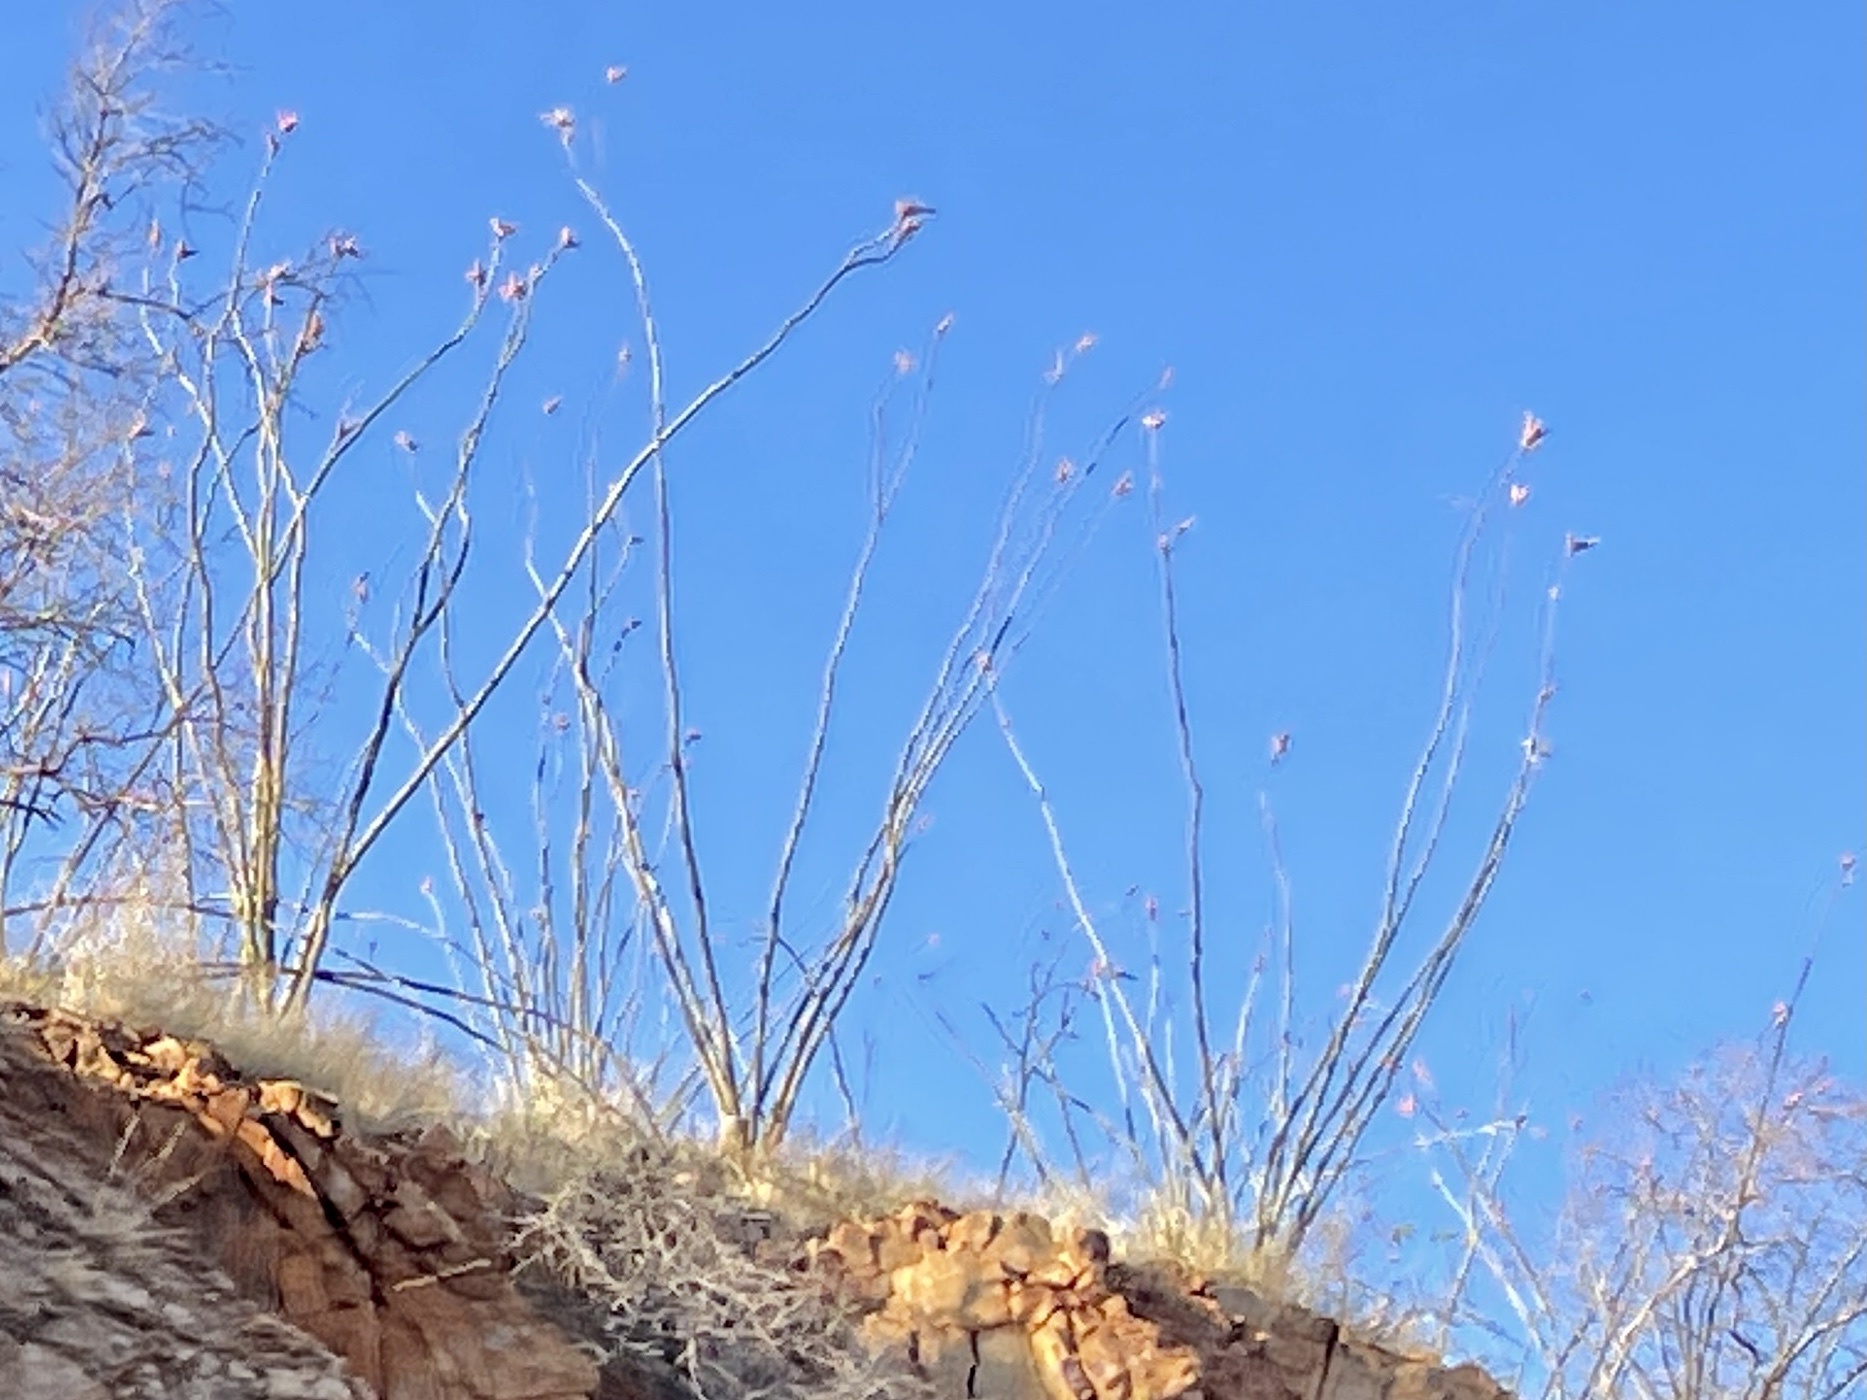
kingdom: Plantae
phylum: Tracheophyta
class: Magnoliopsida
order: Ericales
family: Fouquieriaceae
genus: Fouquieria
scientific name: Fouquieria splendens
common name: Vine-cactus
